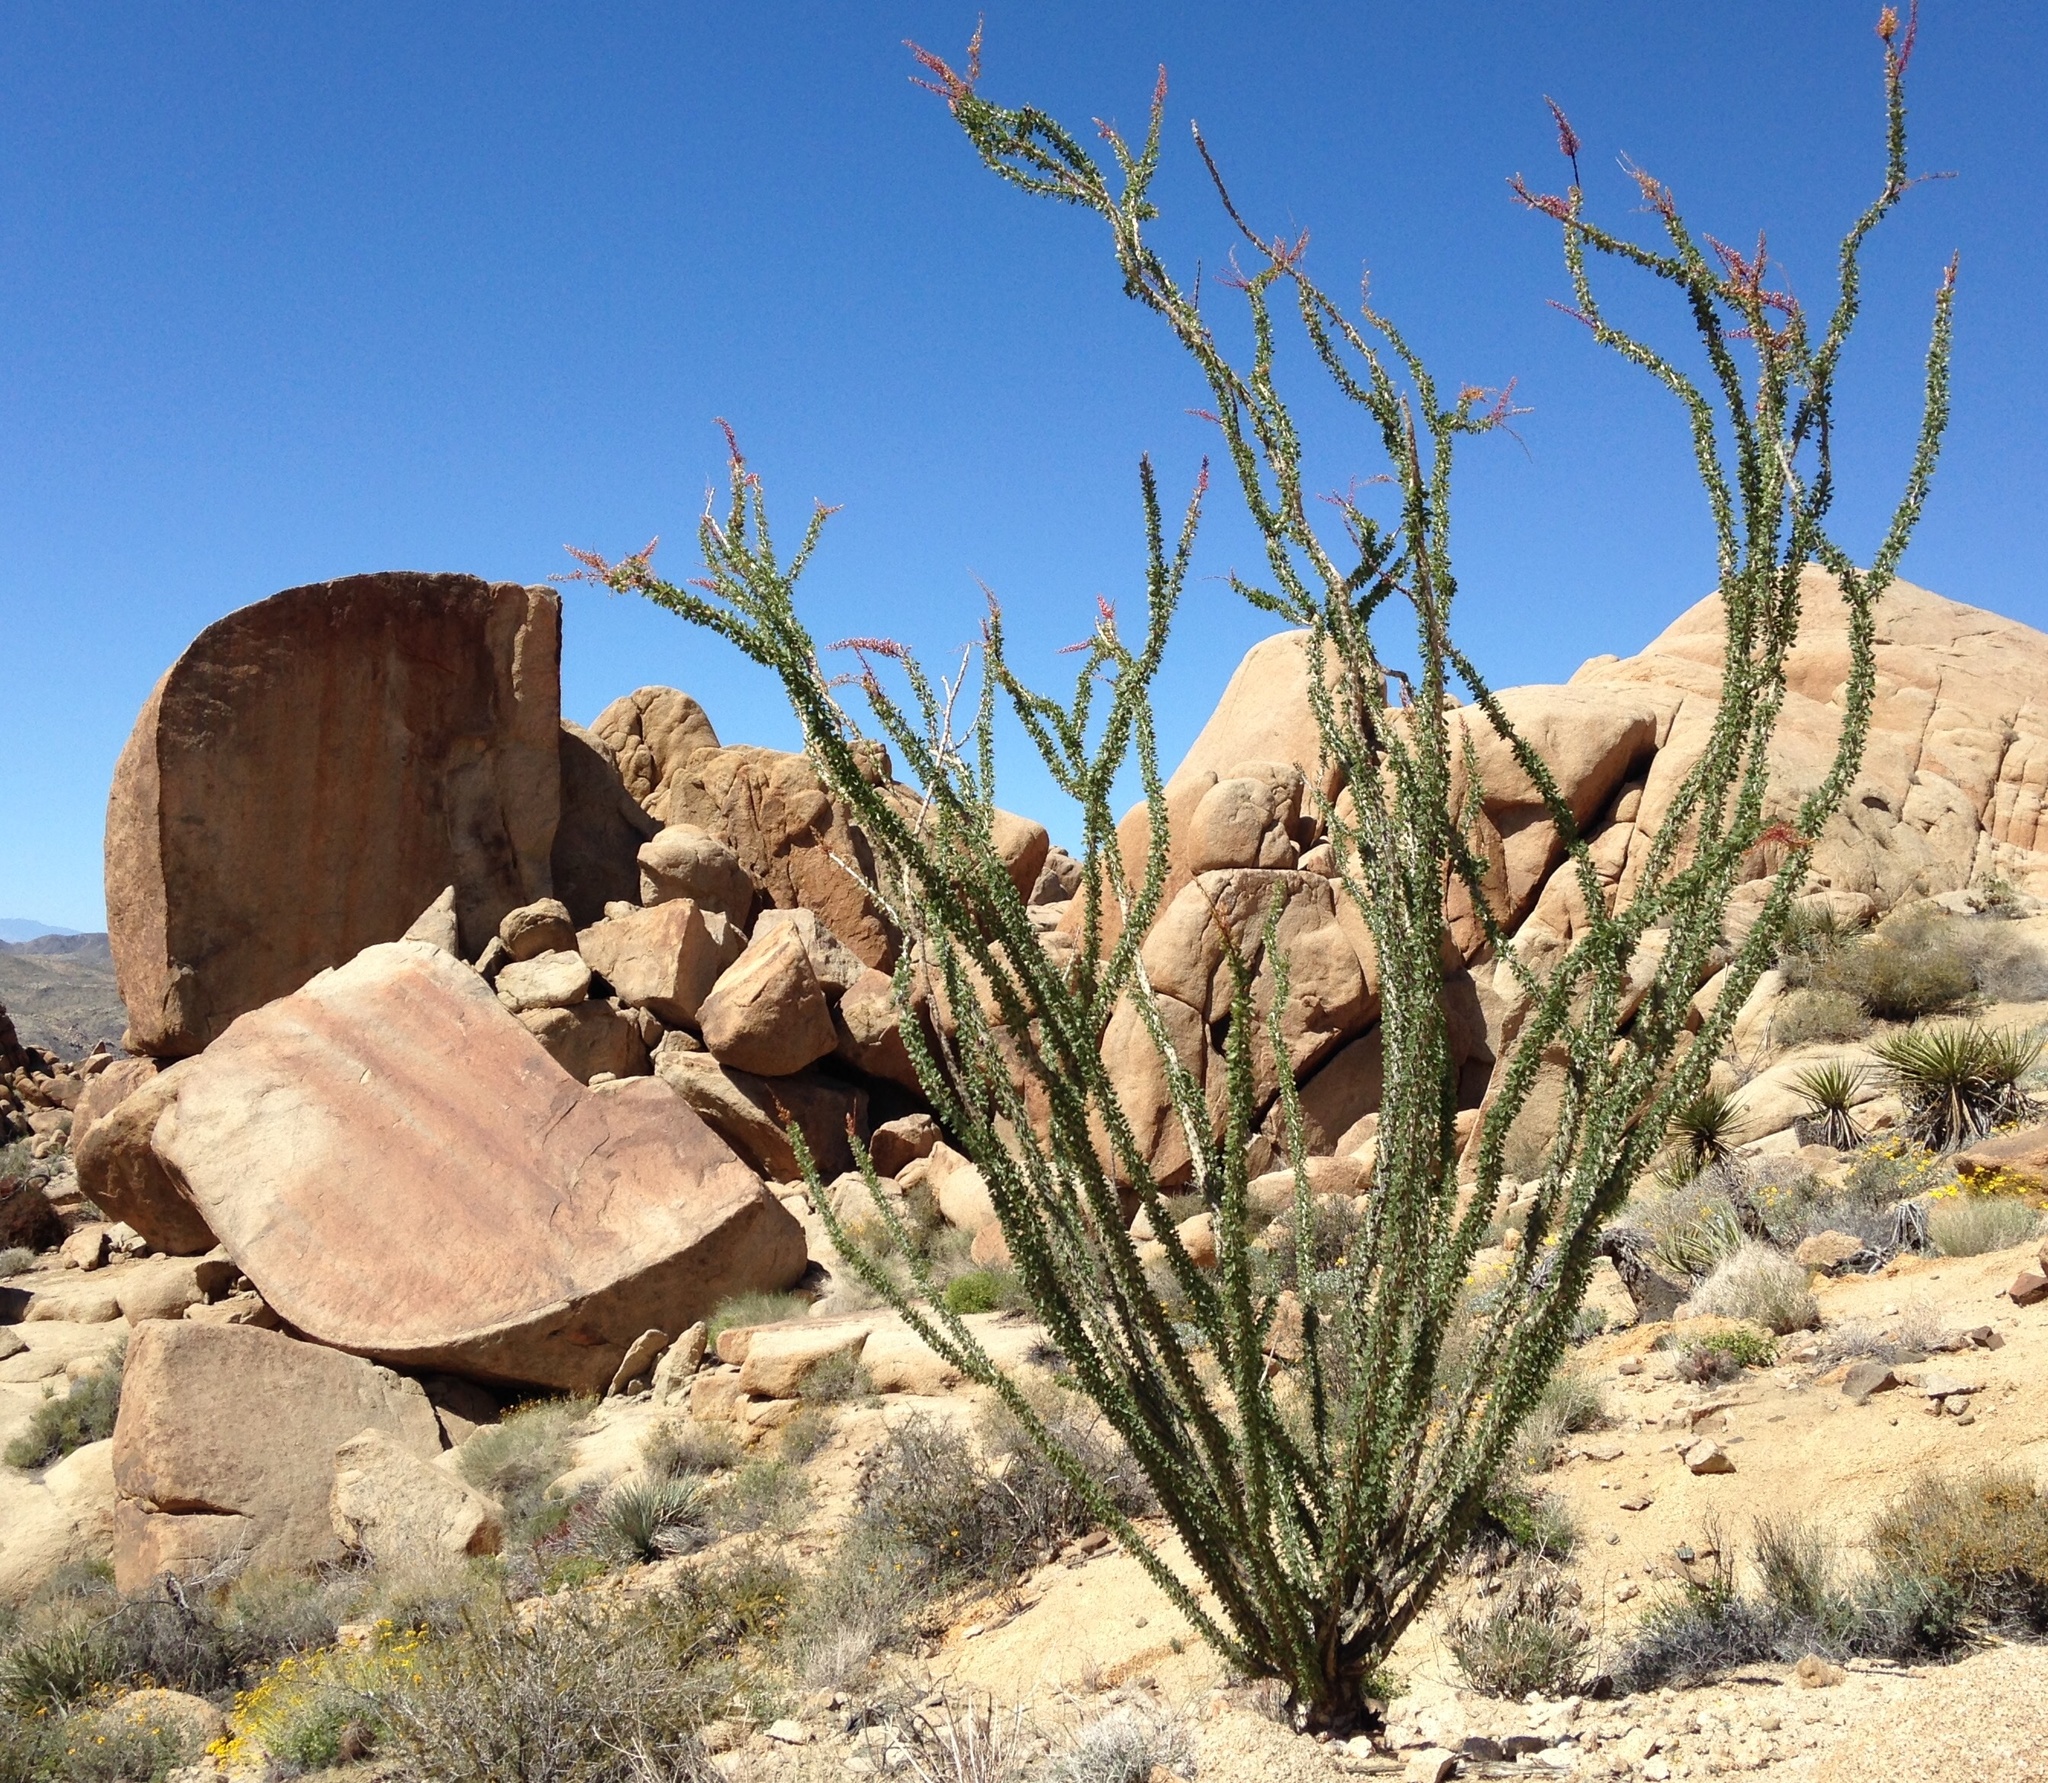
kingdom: Plantae
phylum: Tracheophyta
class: Magnoliopsida
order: Ericales
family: Fouquieriaceae
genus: Fouquieria
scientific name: Fouquieria splendens
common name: Vine-cactus
